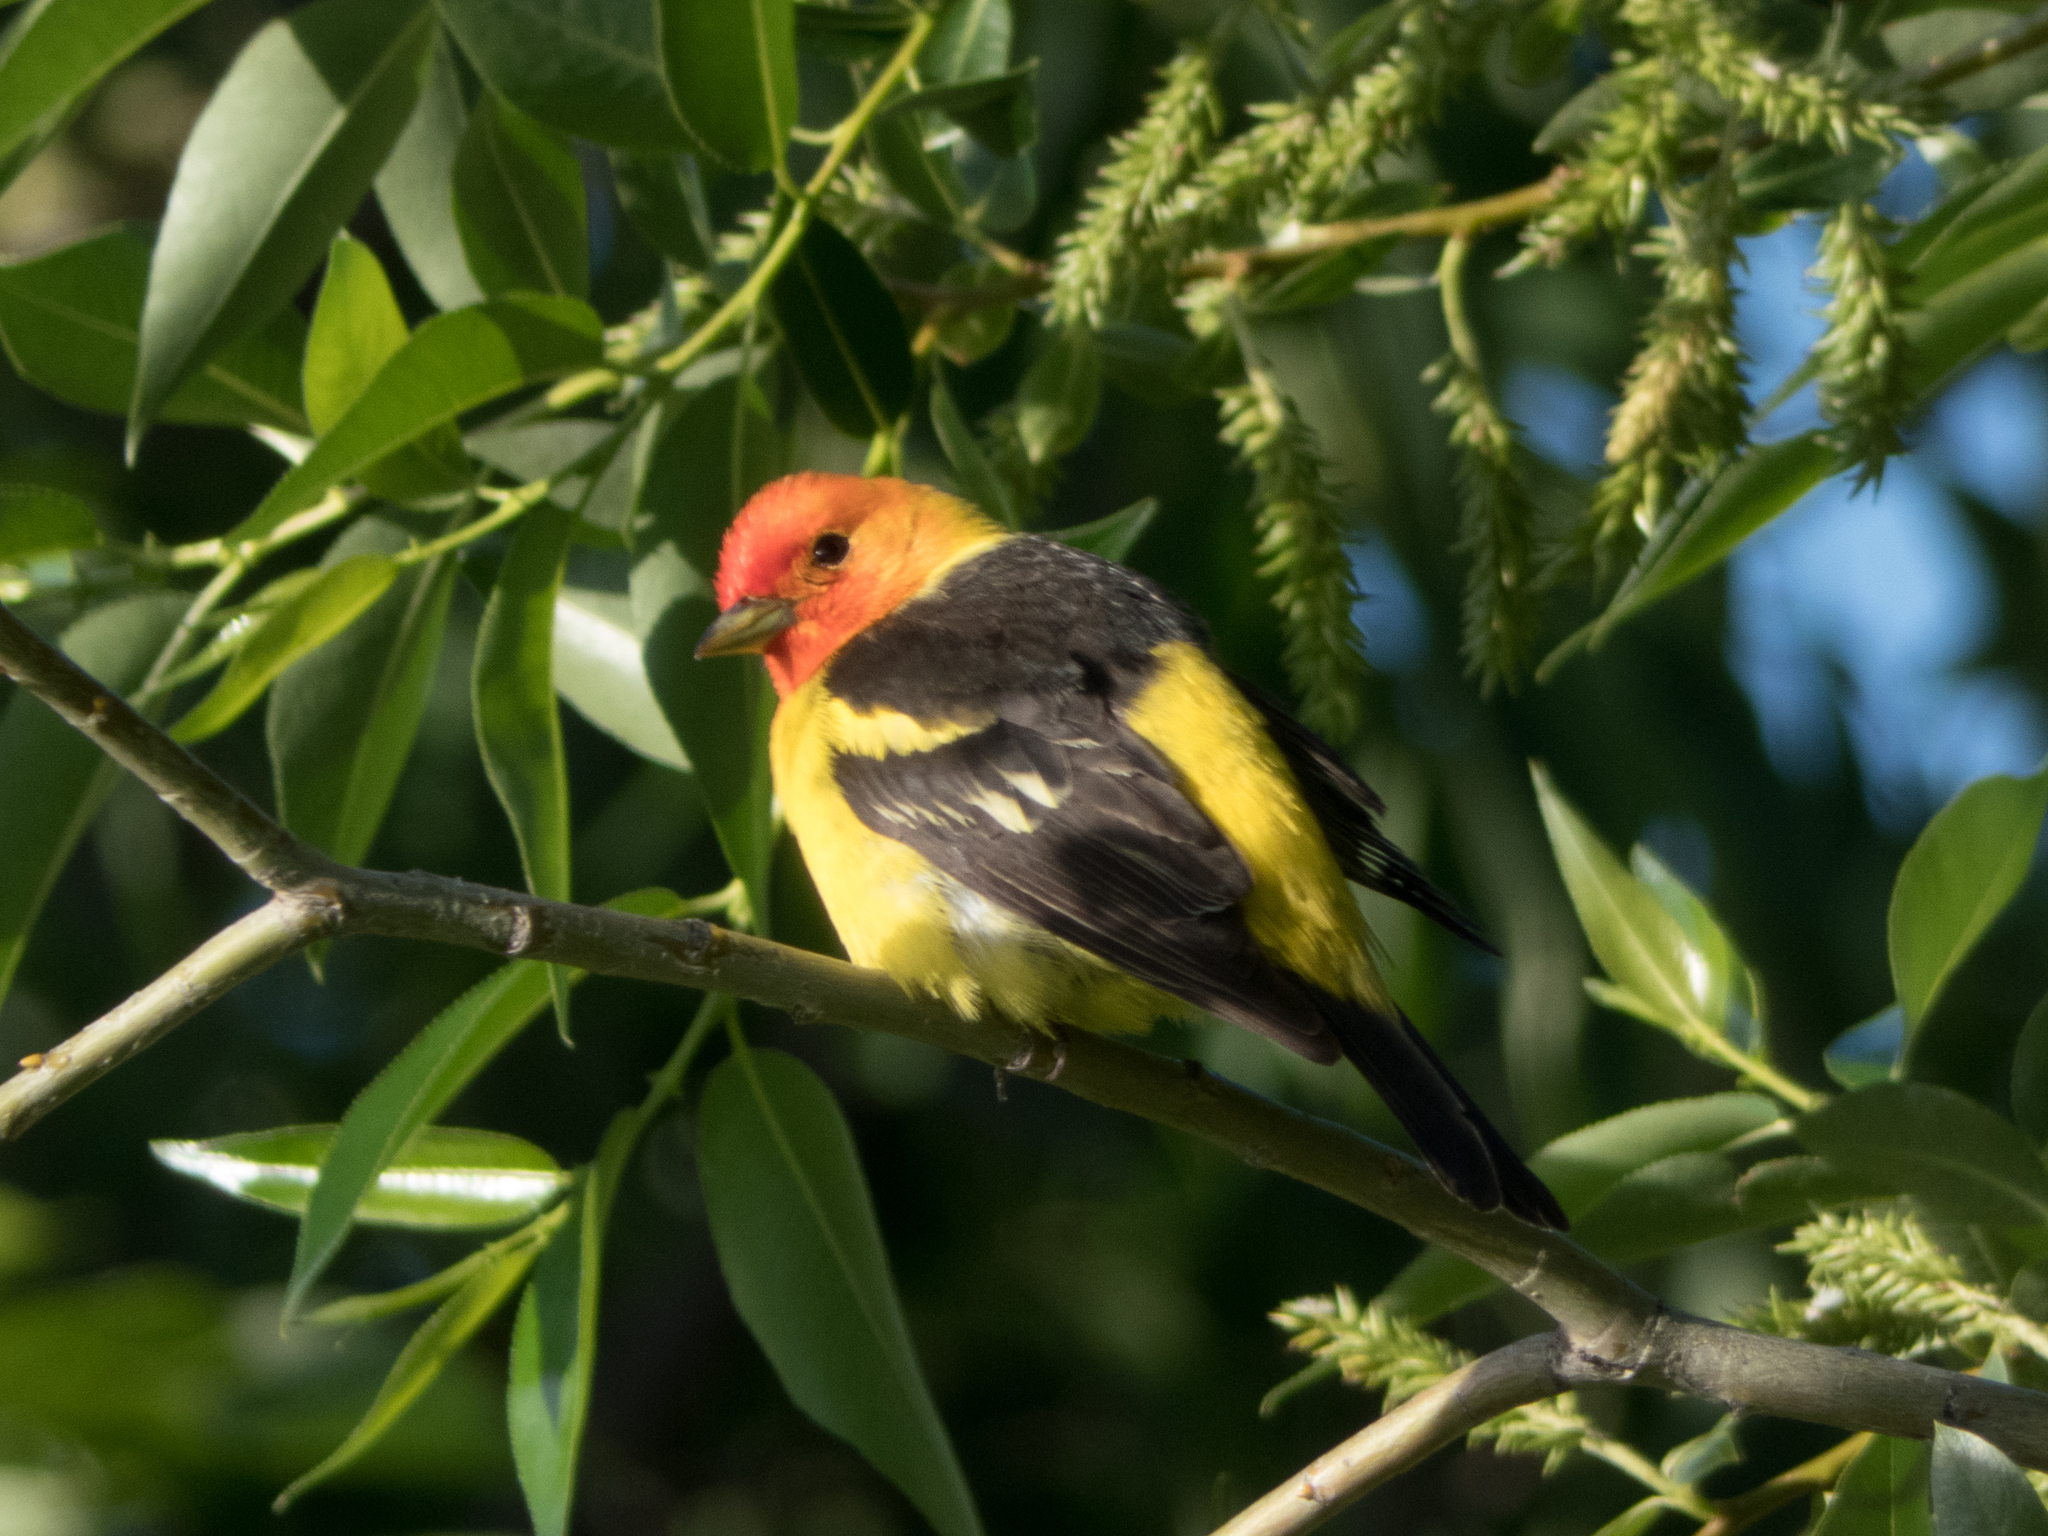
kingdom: Animalia
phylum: Chordata
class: Aves
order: Passeriformes
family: Cardinalidae
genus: Piranga
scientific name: Piranga ludoviciana
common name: Western tanager
